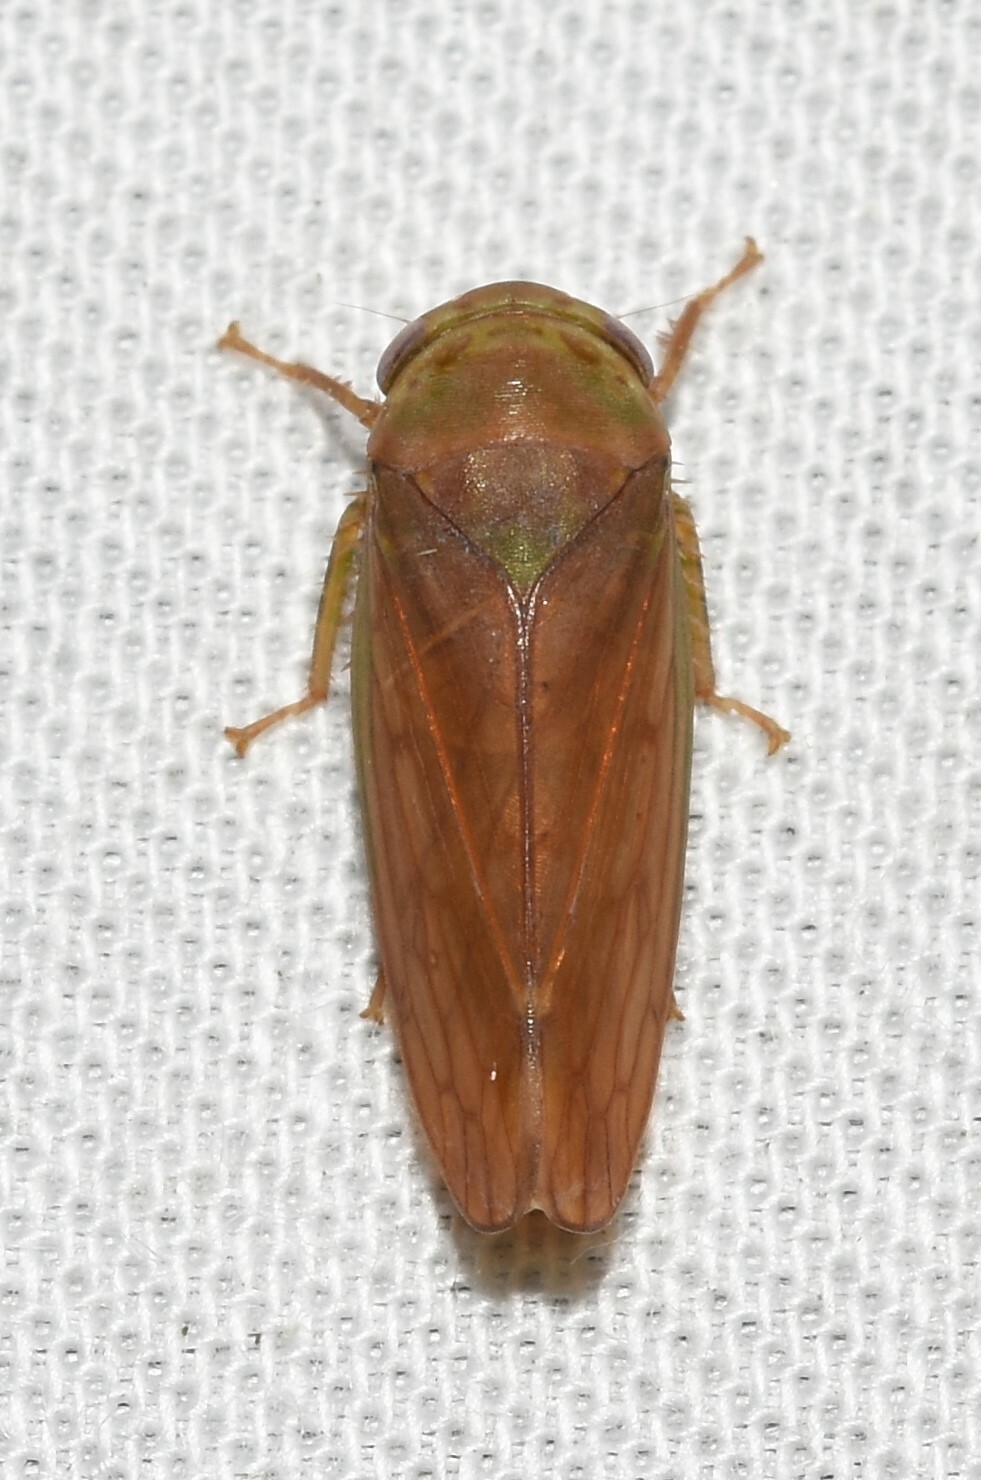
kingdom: Animalia
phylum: Arthropoda
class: Insecta
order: Hemiptera
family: Cicadellidae
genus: Polana
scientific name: Polana quadrinotata
